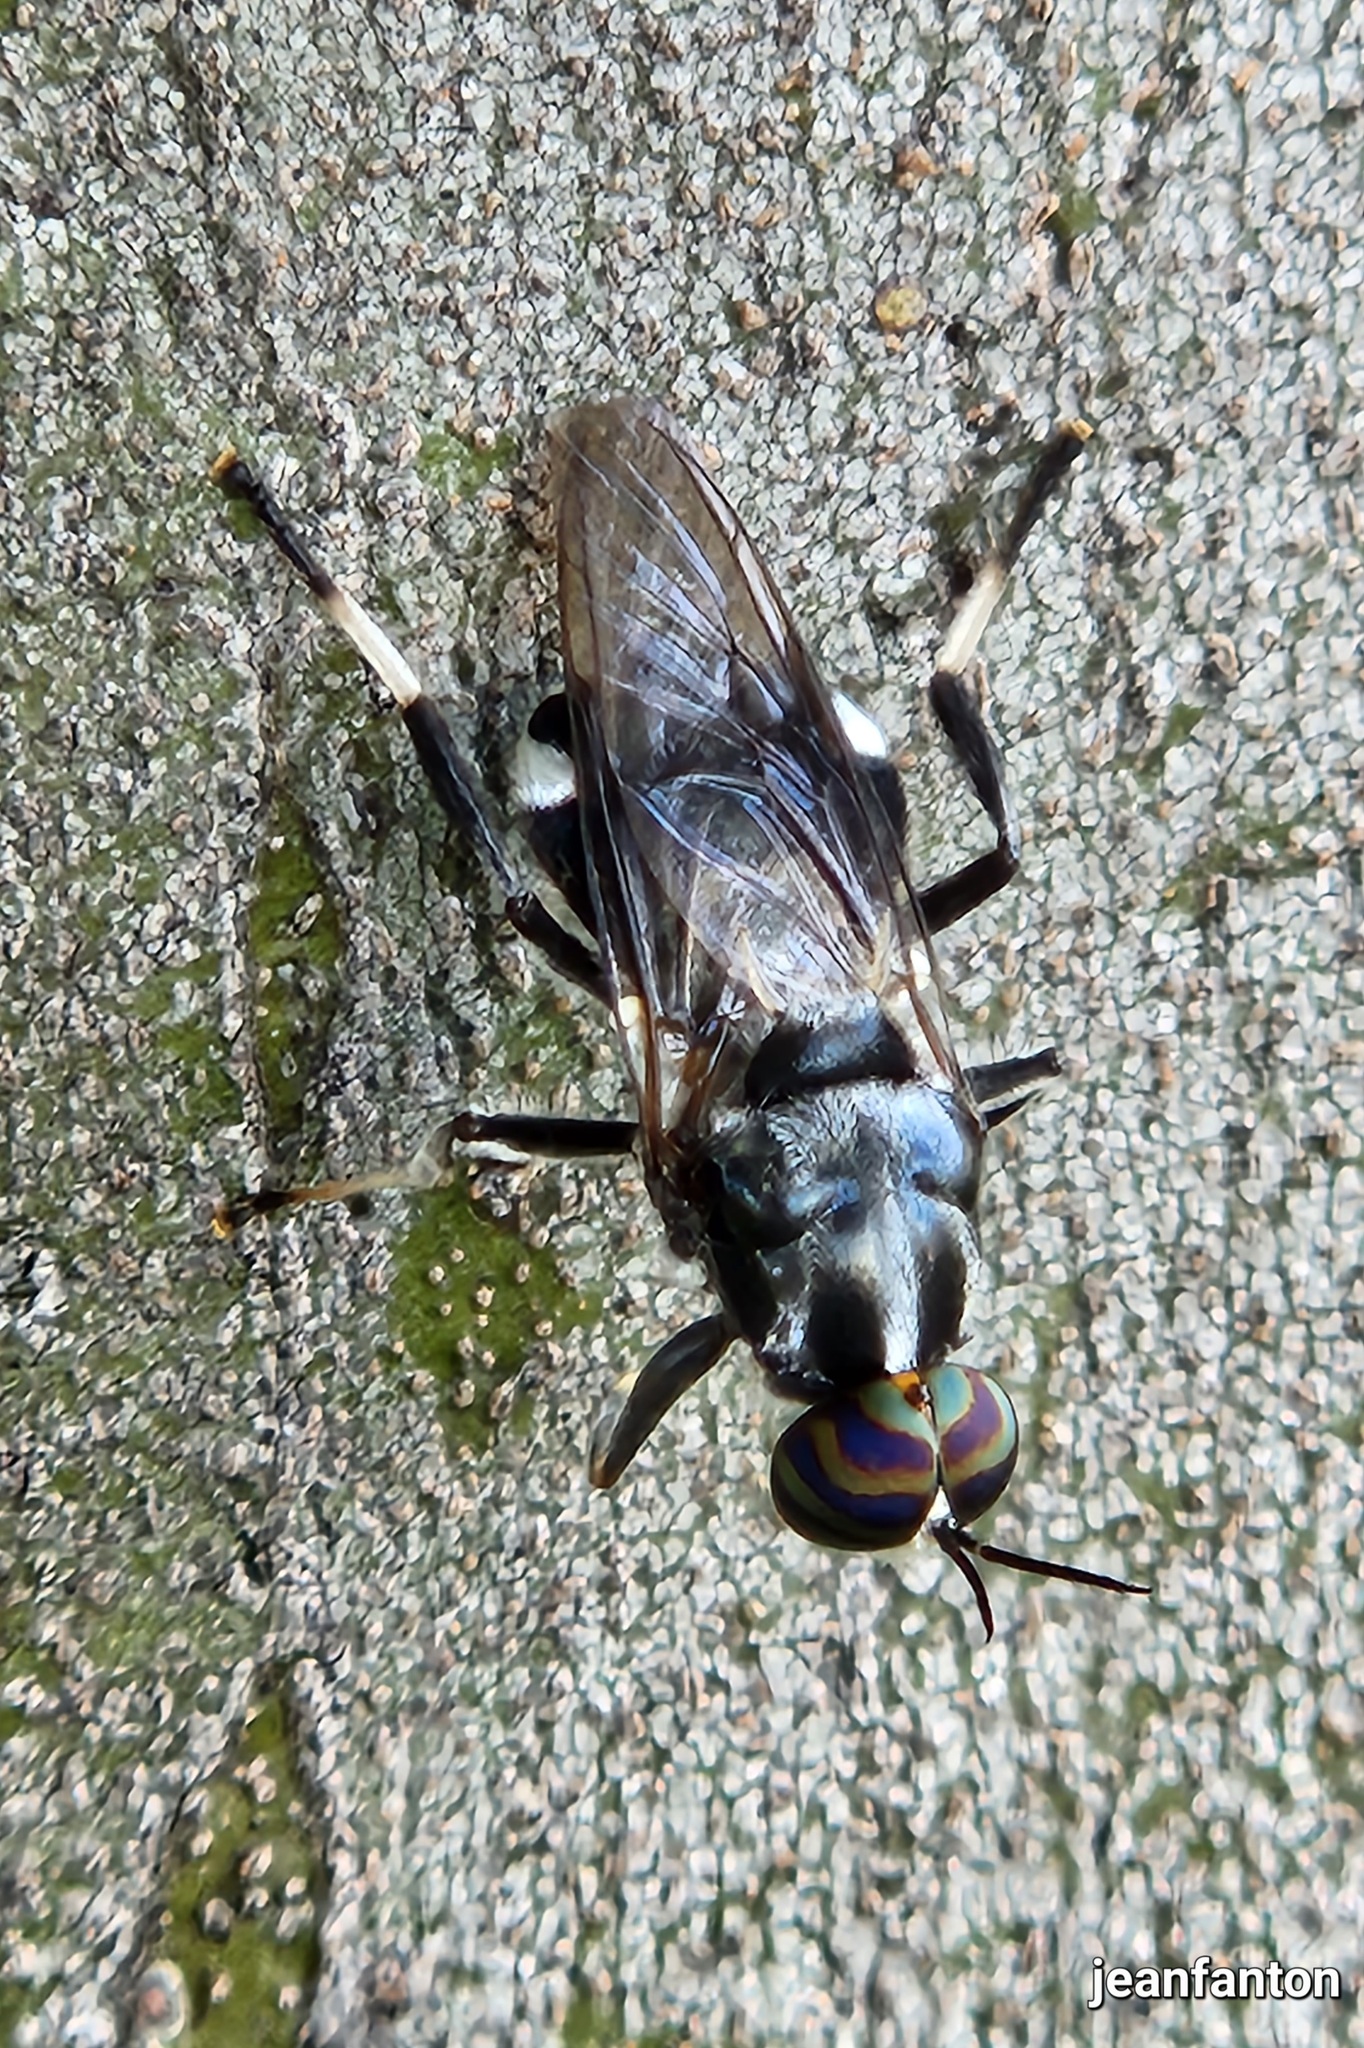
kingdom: Animalia
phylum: Arthropoda
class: Insecta
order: Diptera
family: Stratiomyidae
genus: Cyphomyia
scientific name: Cyphomyia wiedemanni
